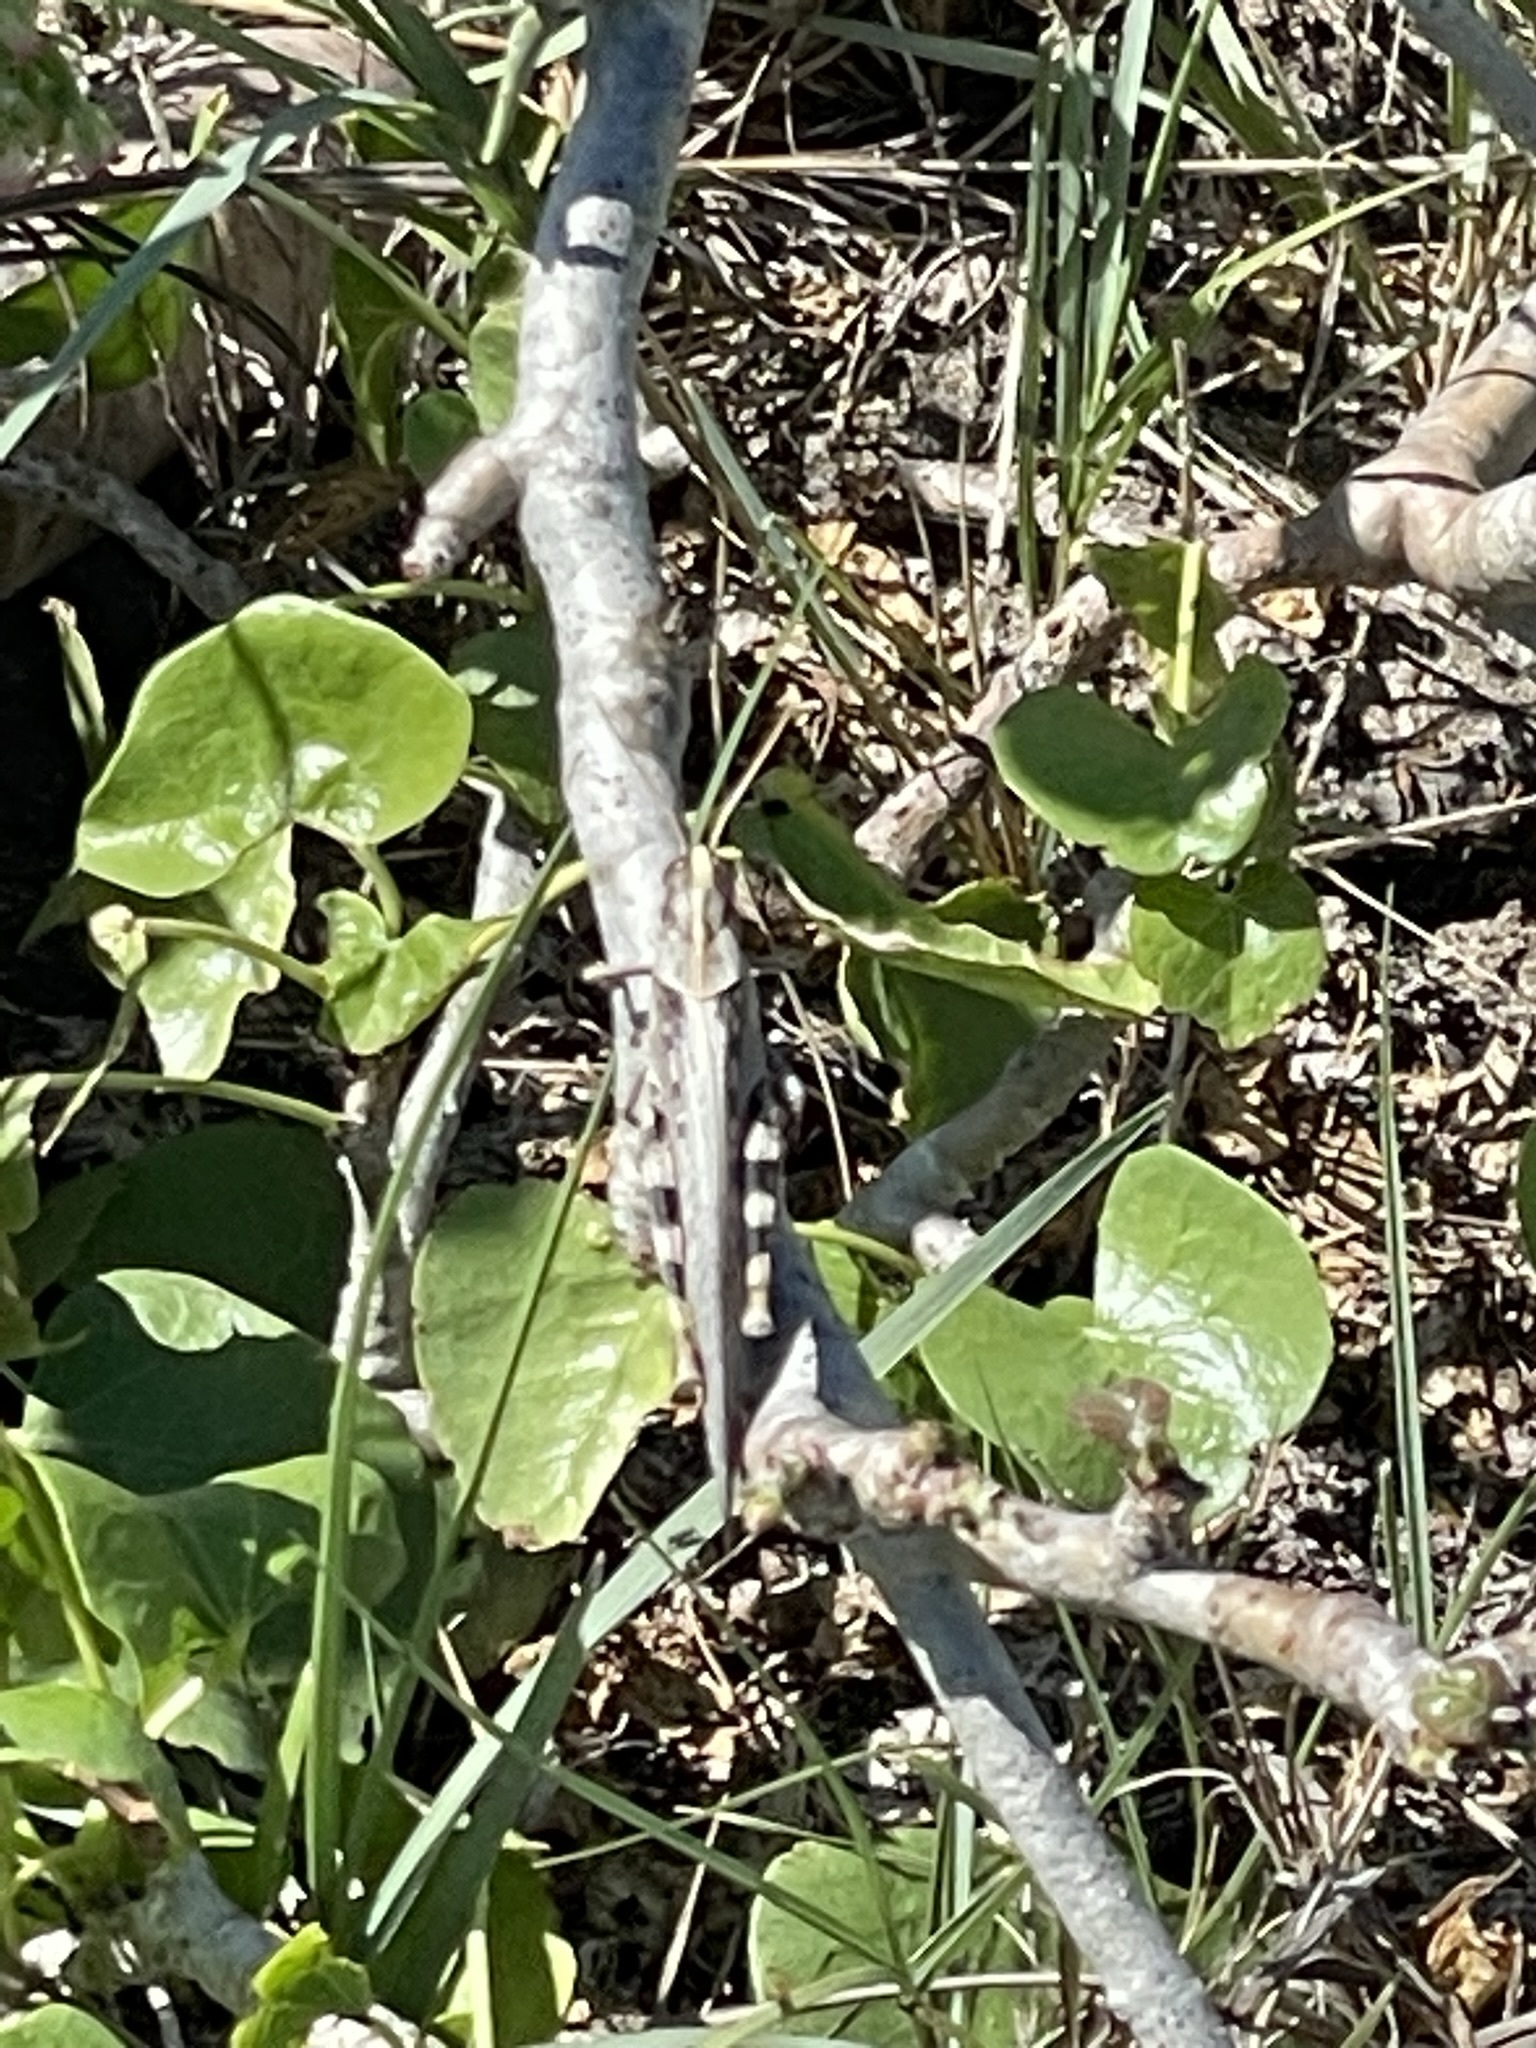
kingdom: Animalia
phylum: Arthropoda
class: Insecta
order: Orthoptera
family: Acrididae
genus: Schistocerca
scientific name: Schistocerca nitens
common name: Vagrant grasshopper
